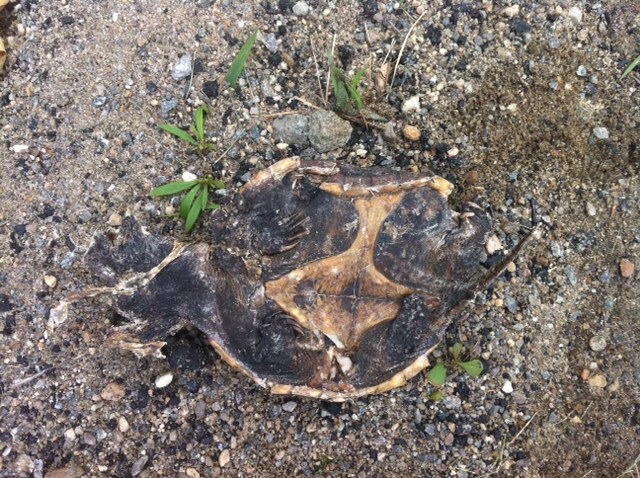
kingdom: Animalia
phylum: Chordata
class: Testudines
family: Chelydridae
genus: Chelydra
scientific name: Chelydra serpentina
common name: Common snapping turtle
